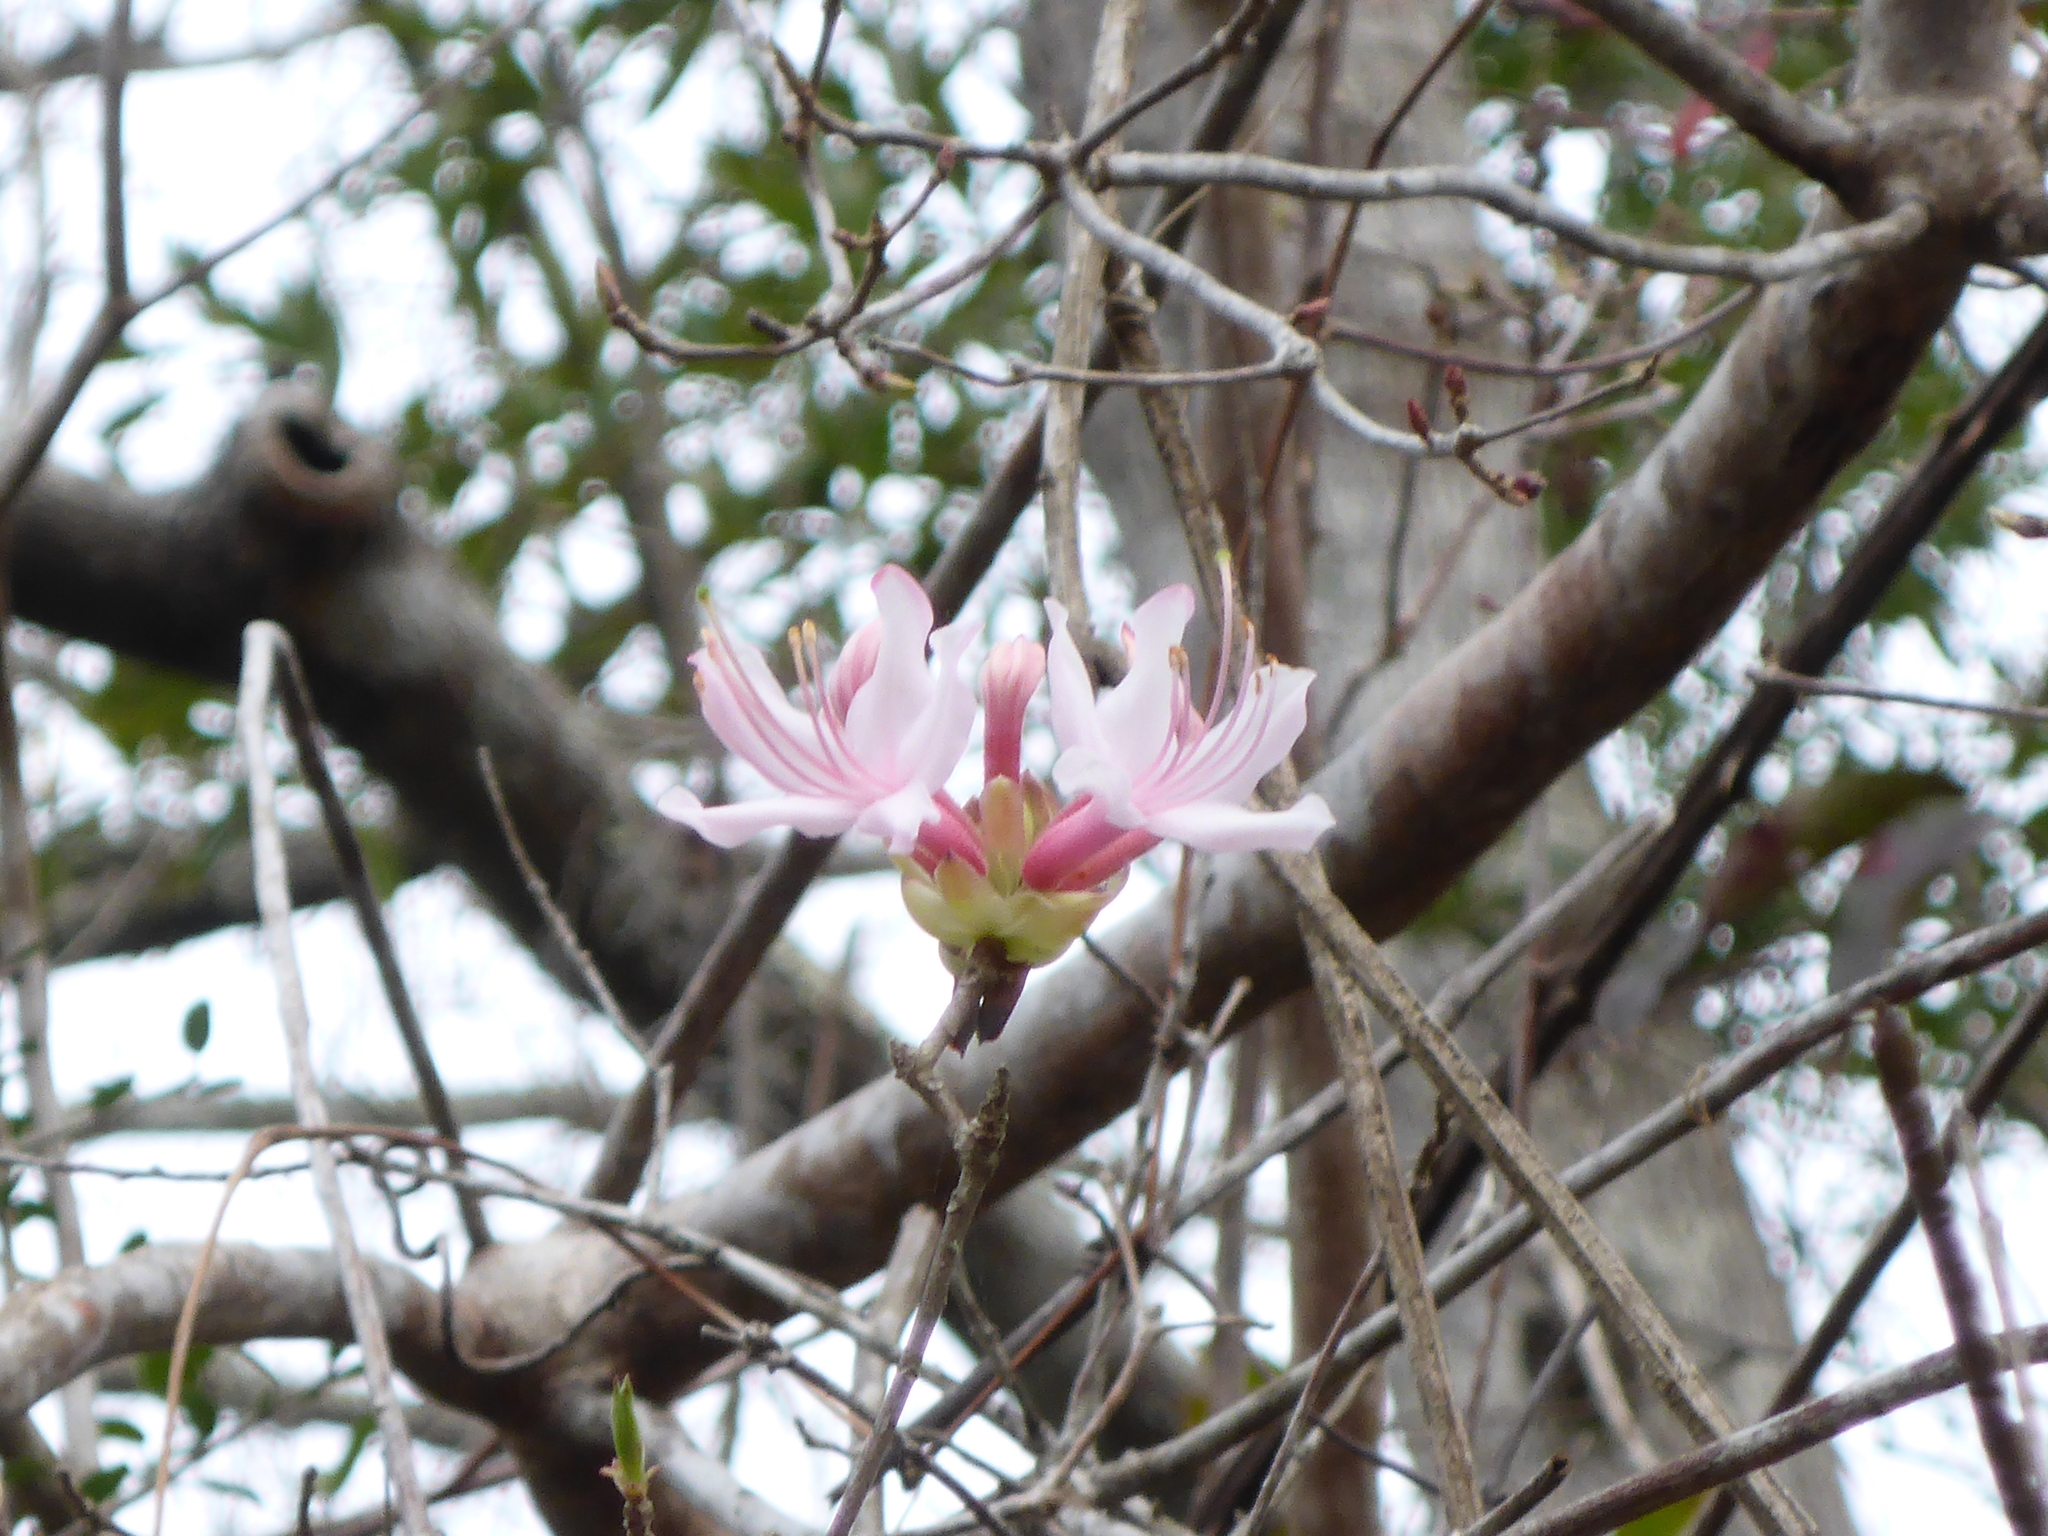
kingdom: Plantae
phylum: Tracheophyta
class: Magnoliopsida
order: Ericales
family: Ericaceae
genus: Rhododendron
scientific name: Rhododendron canescens
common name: Mountain azalea
